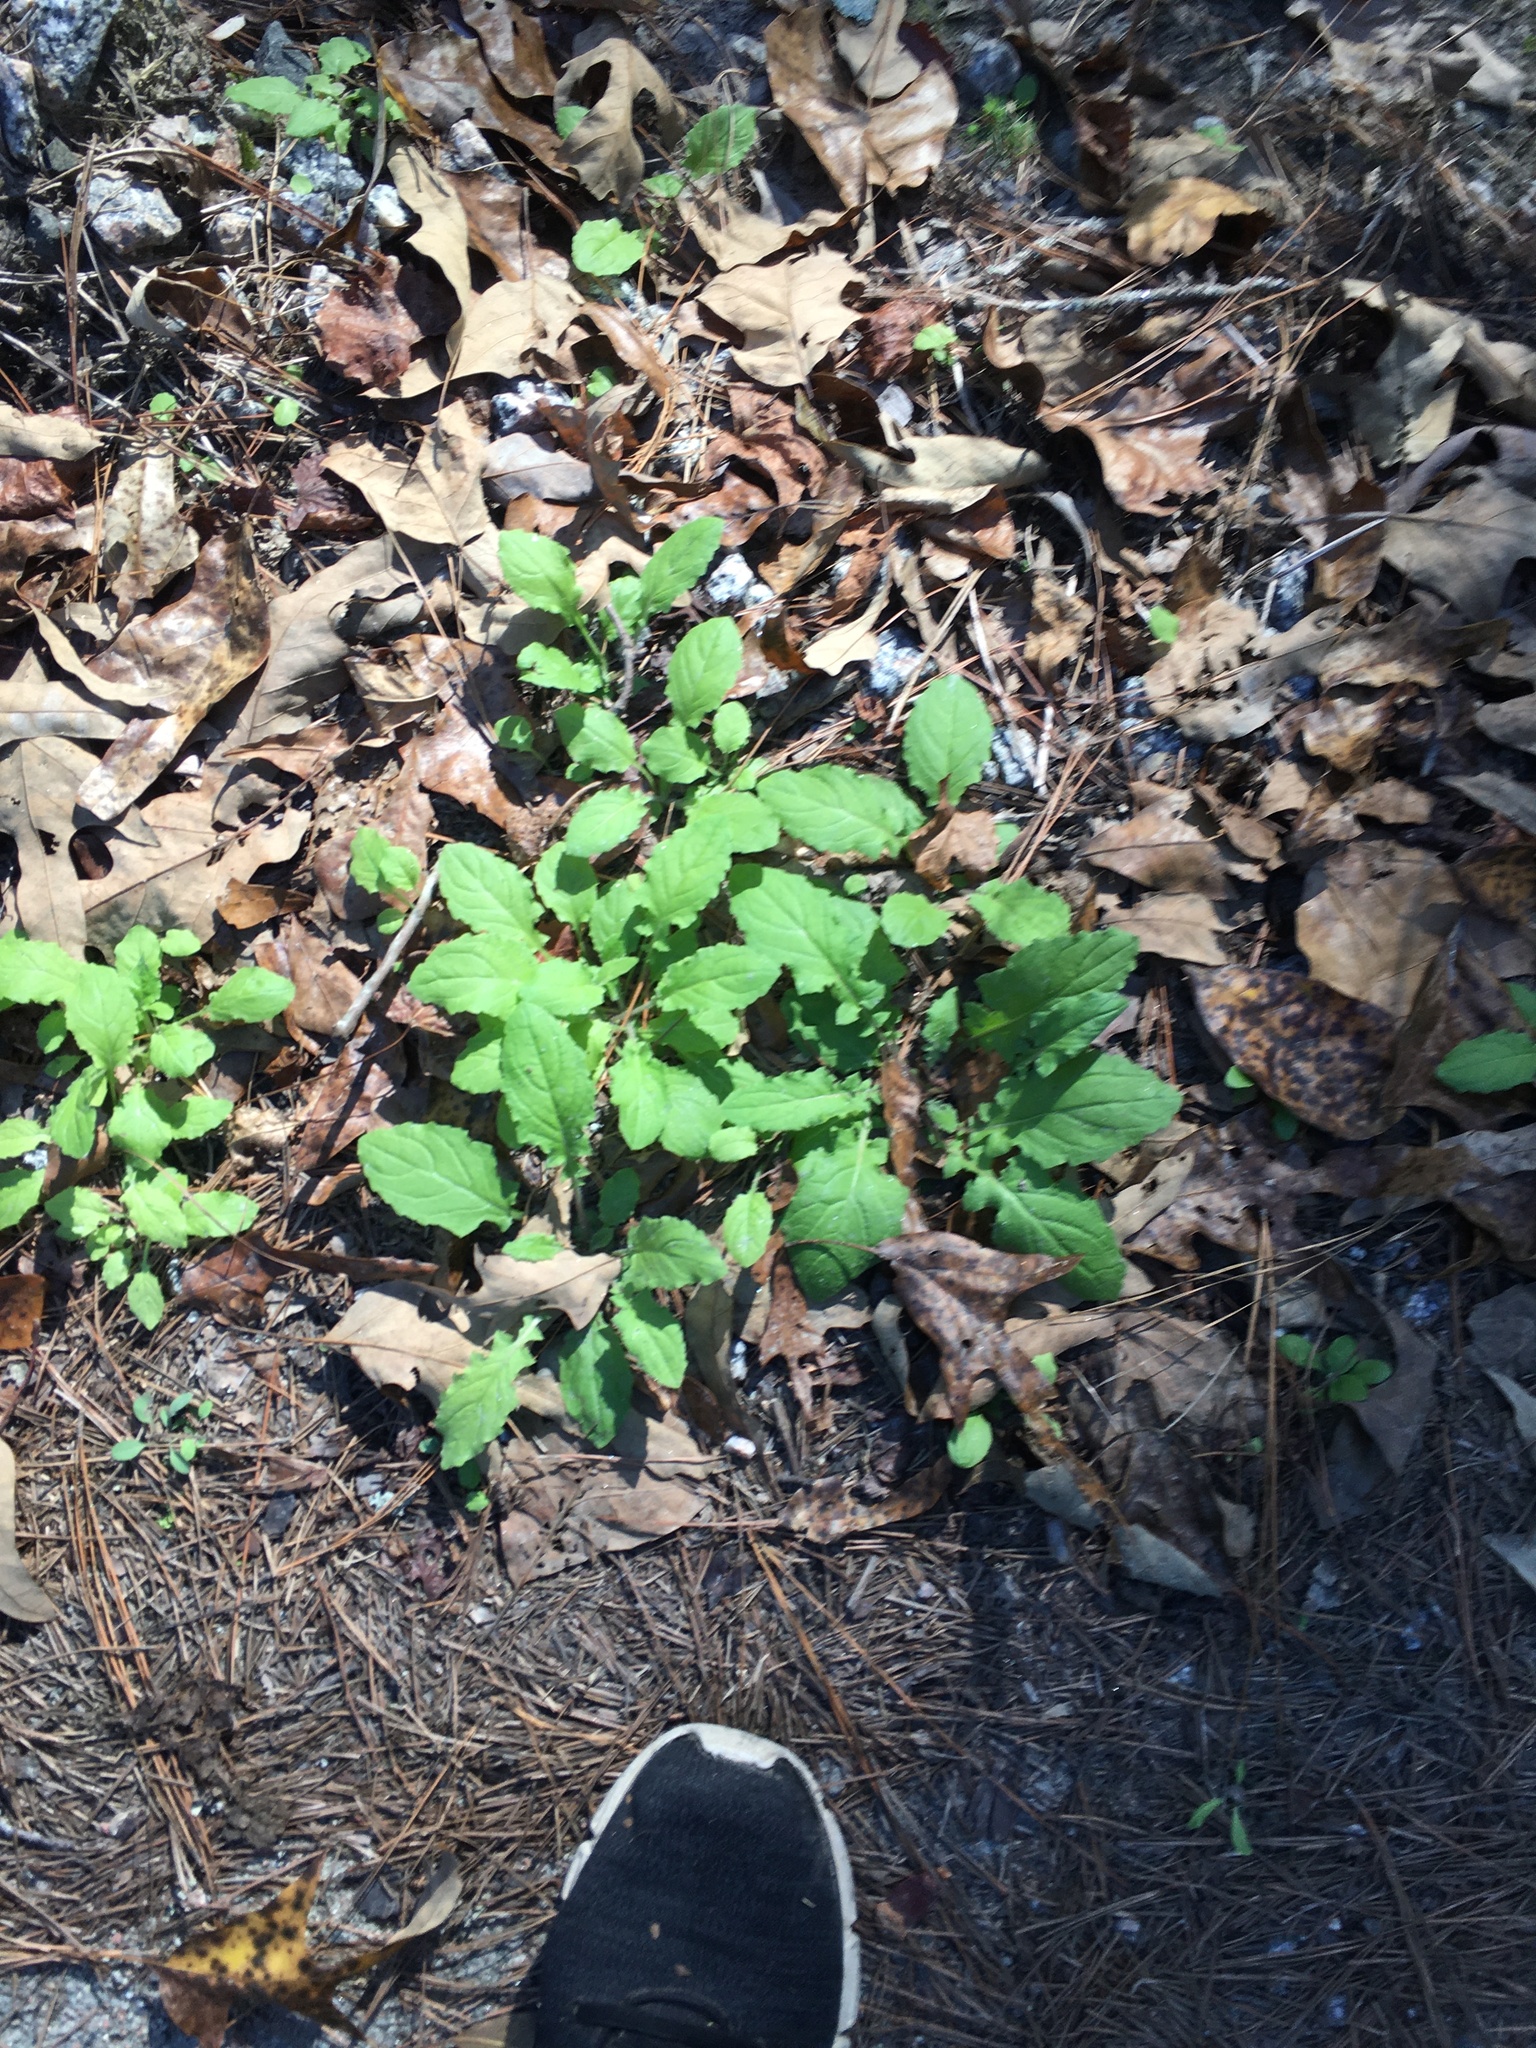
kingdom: Plantae
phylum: Tracheophyta
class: Magnoliopsida
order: Asterales
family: Asteraceae
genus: Youngia
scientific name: Youngia japonica
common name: Oriental false hawksbeard
